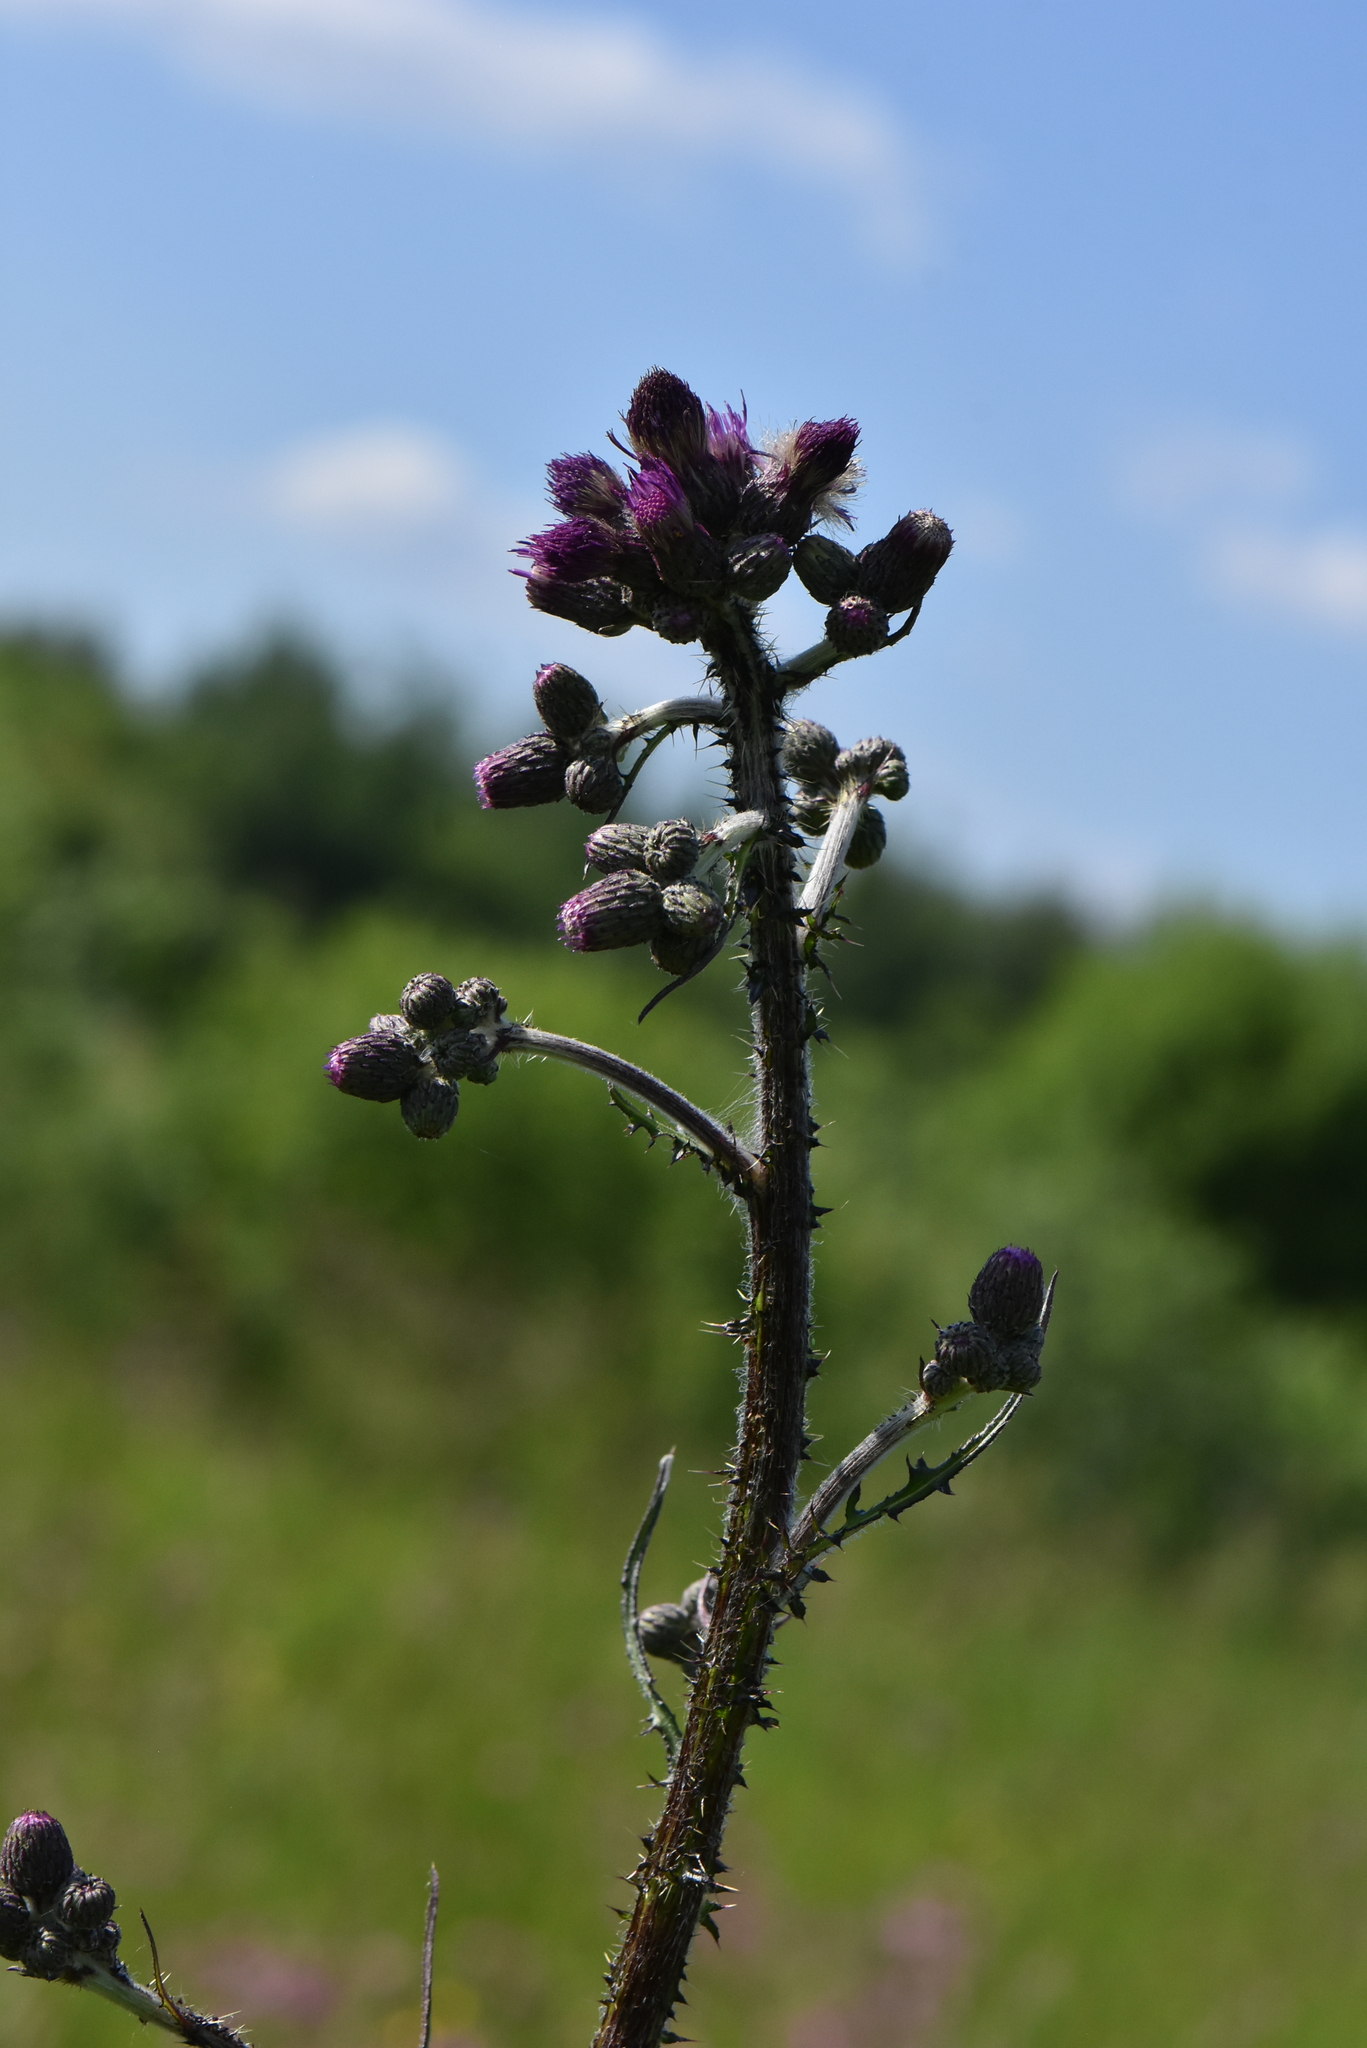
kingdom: Plantae
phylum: Tracheophyta
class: Magnoliopsida
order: Asterales
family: Asteraceae
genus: Cirsium
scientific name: Cirsium palustre
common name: Marsh thistle
